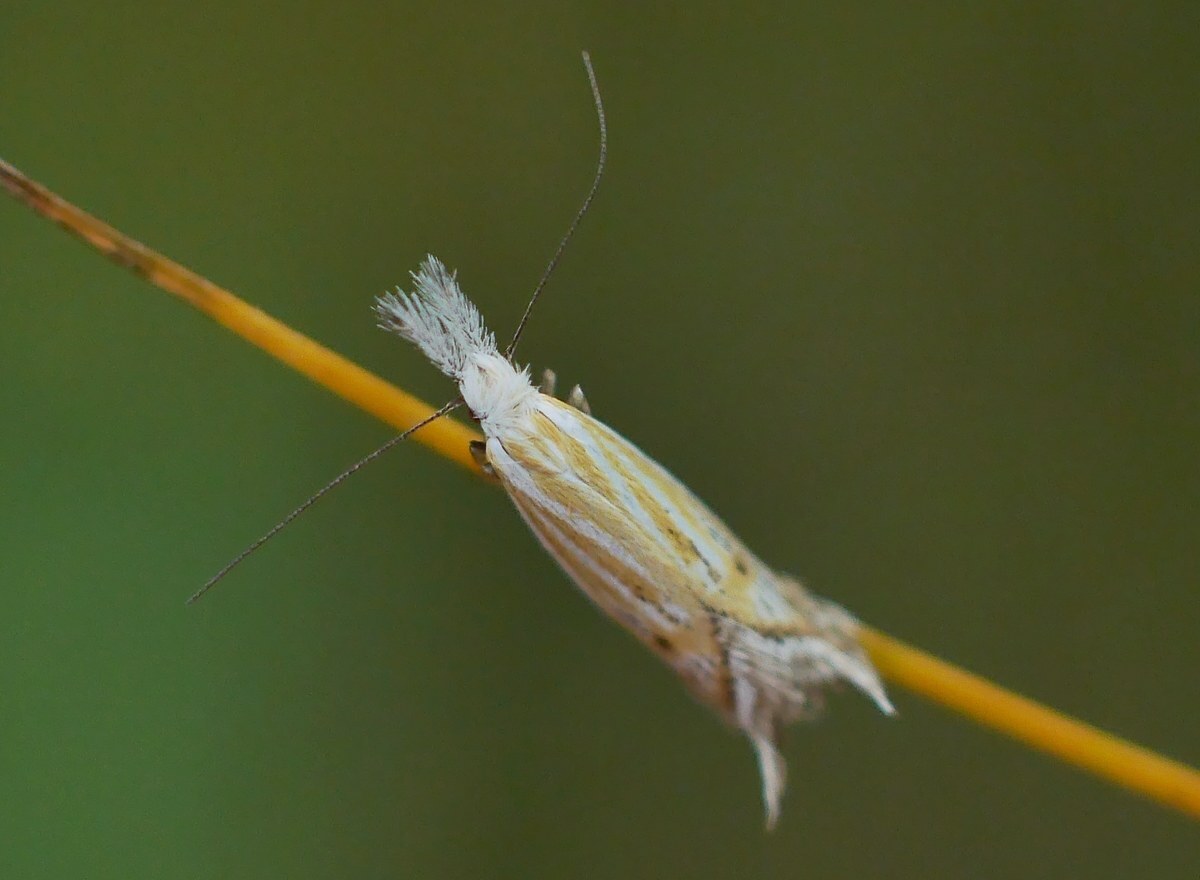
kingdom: Animalia
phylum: Arthropoda
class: Insecta
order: Lepidoptera
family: Oecophoridae
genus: Pleurota
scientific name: Pleurota huebneri
